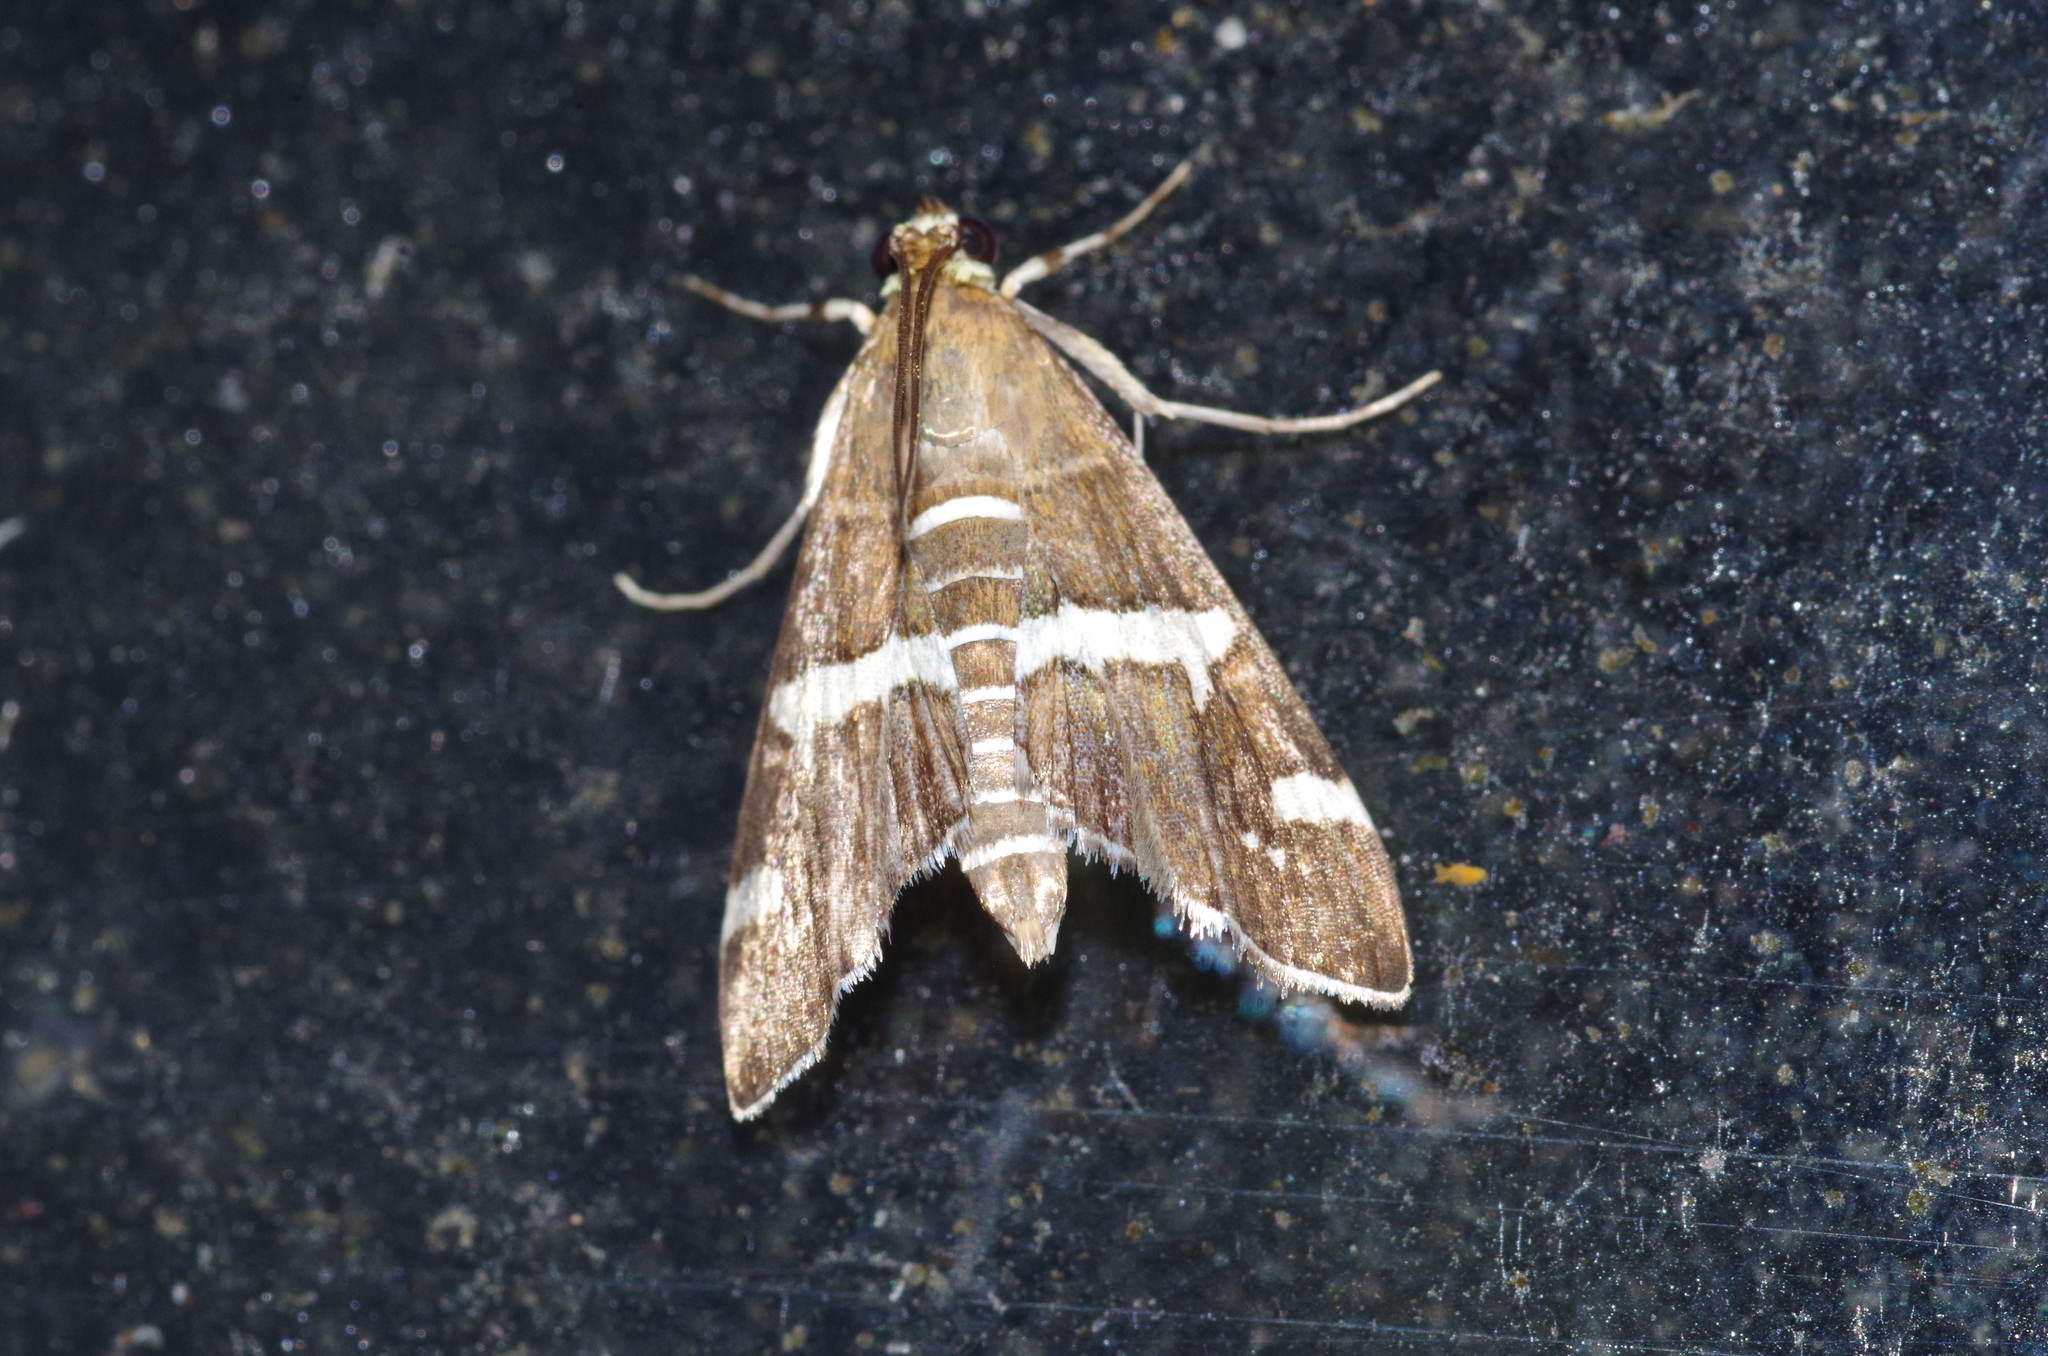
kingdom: Animalia
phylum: Arthropoda
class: Insecta
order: Lepidoptera
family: Crambidae
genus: Spoladea
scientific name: Spoladea recurvalis
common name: Beet webworm moth
